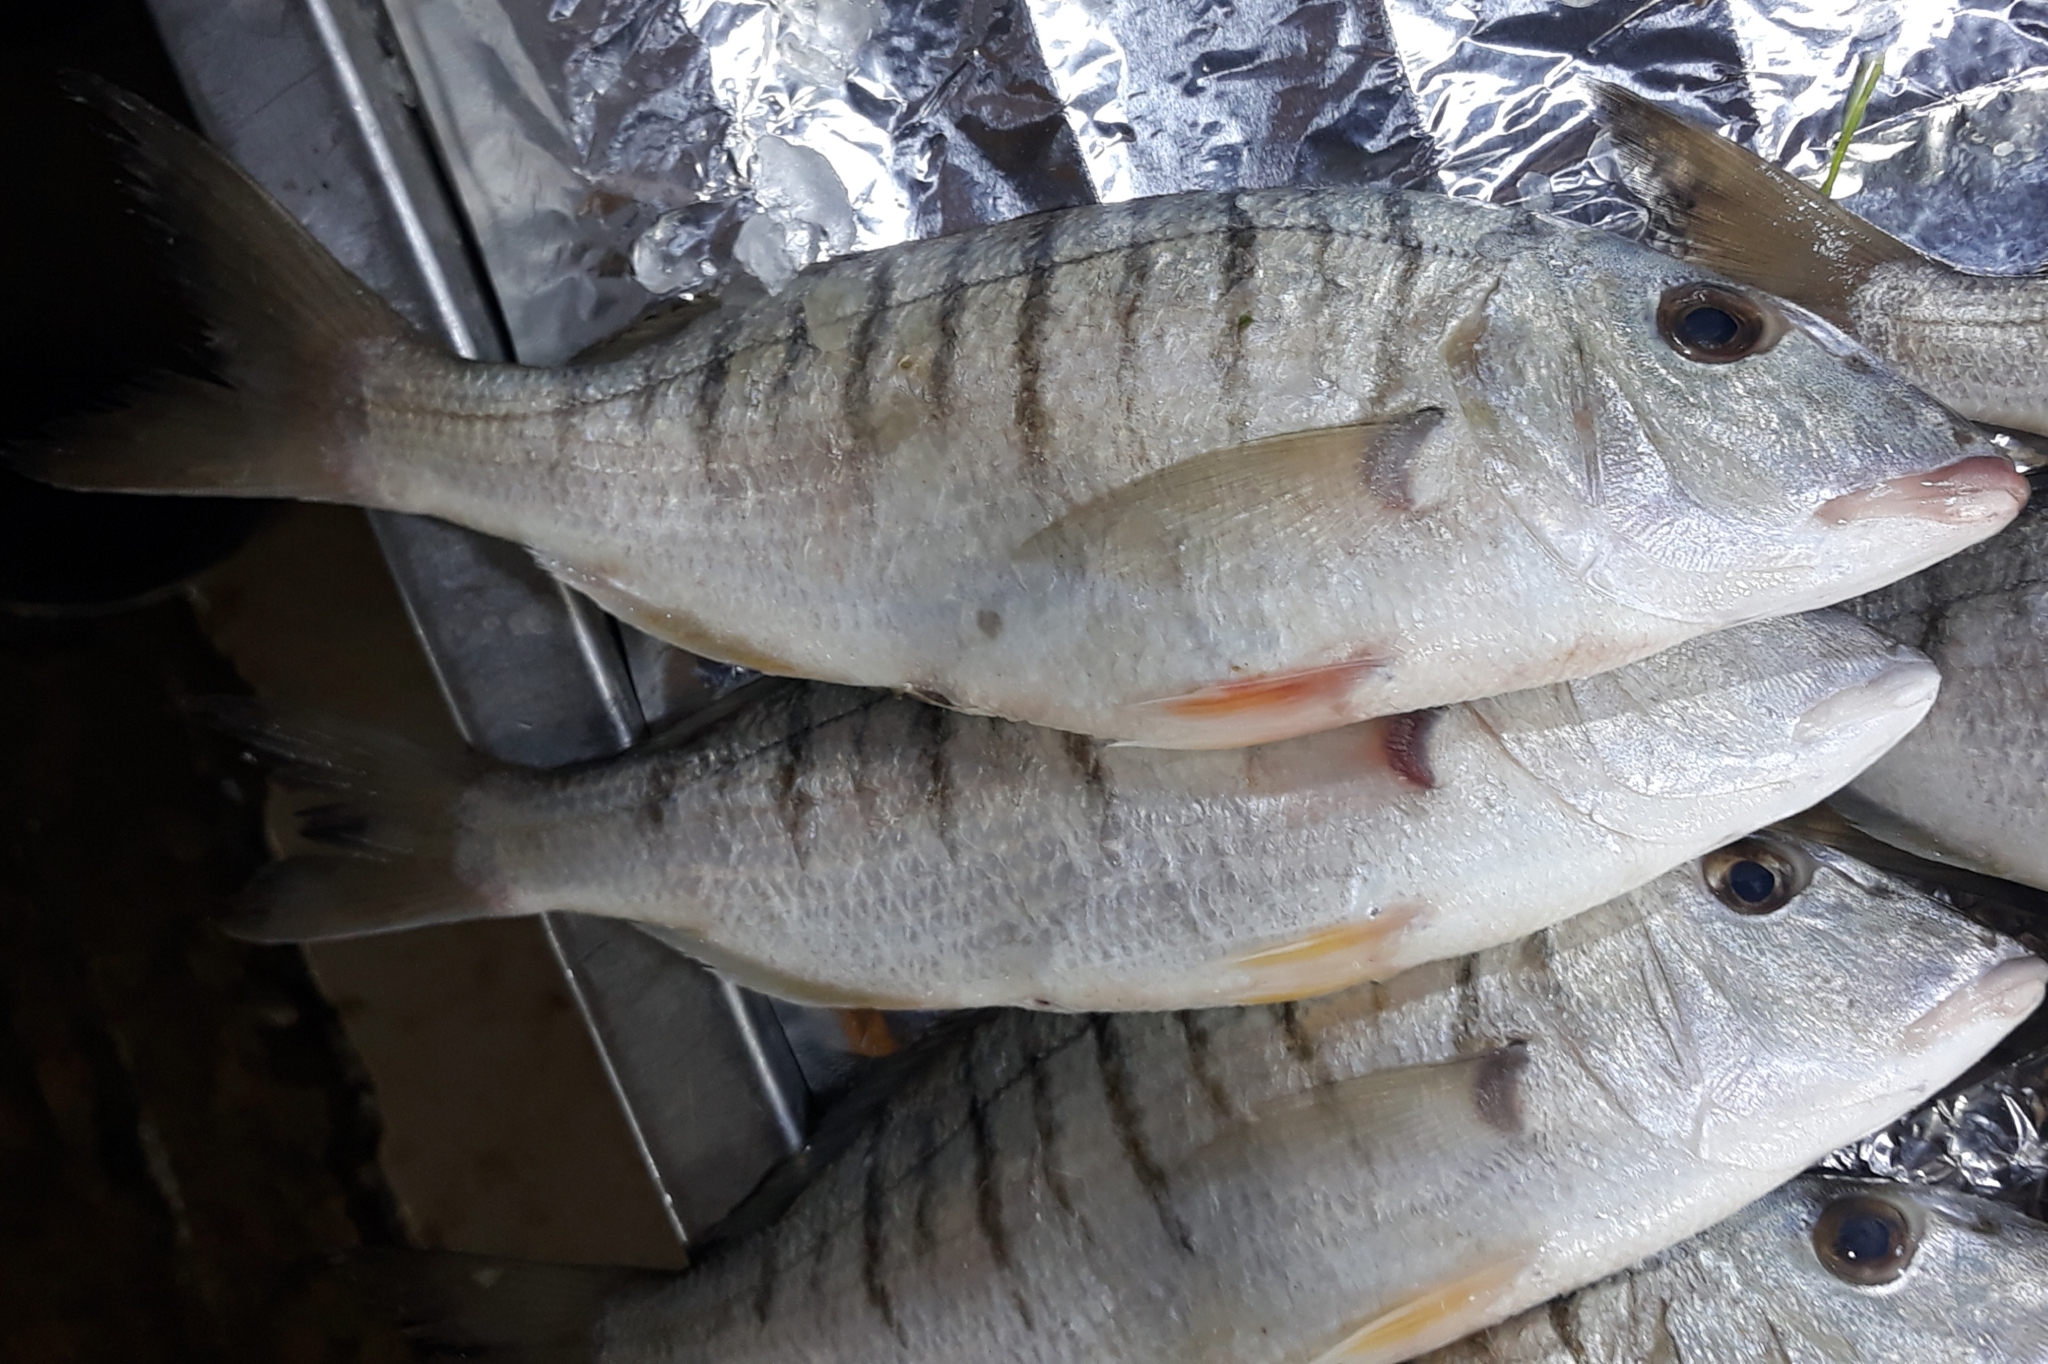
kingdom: Animalia
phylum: Chordata
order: Perciformes
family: Sparidae
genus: Lithognathus
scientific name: Lithognathus mormyrus
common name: Sand steenbras
